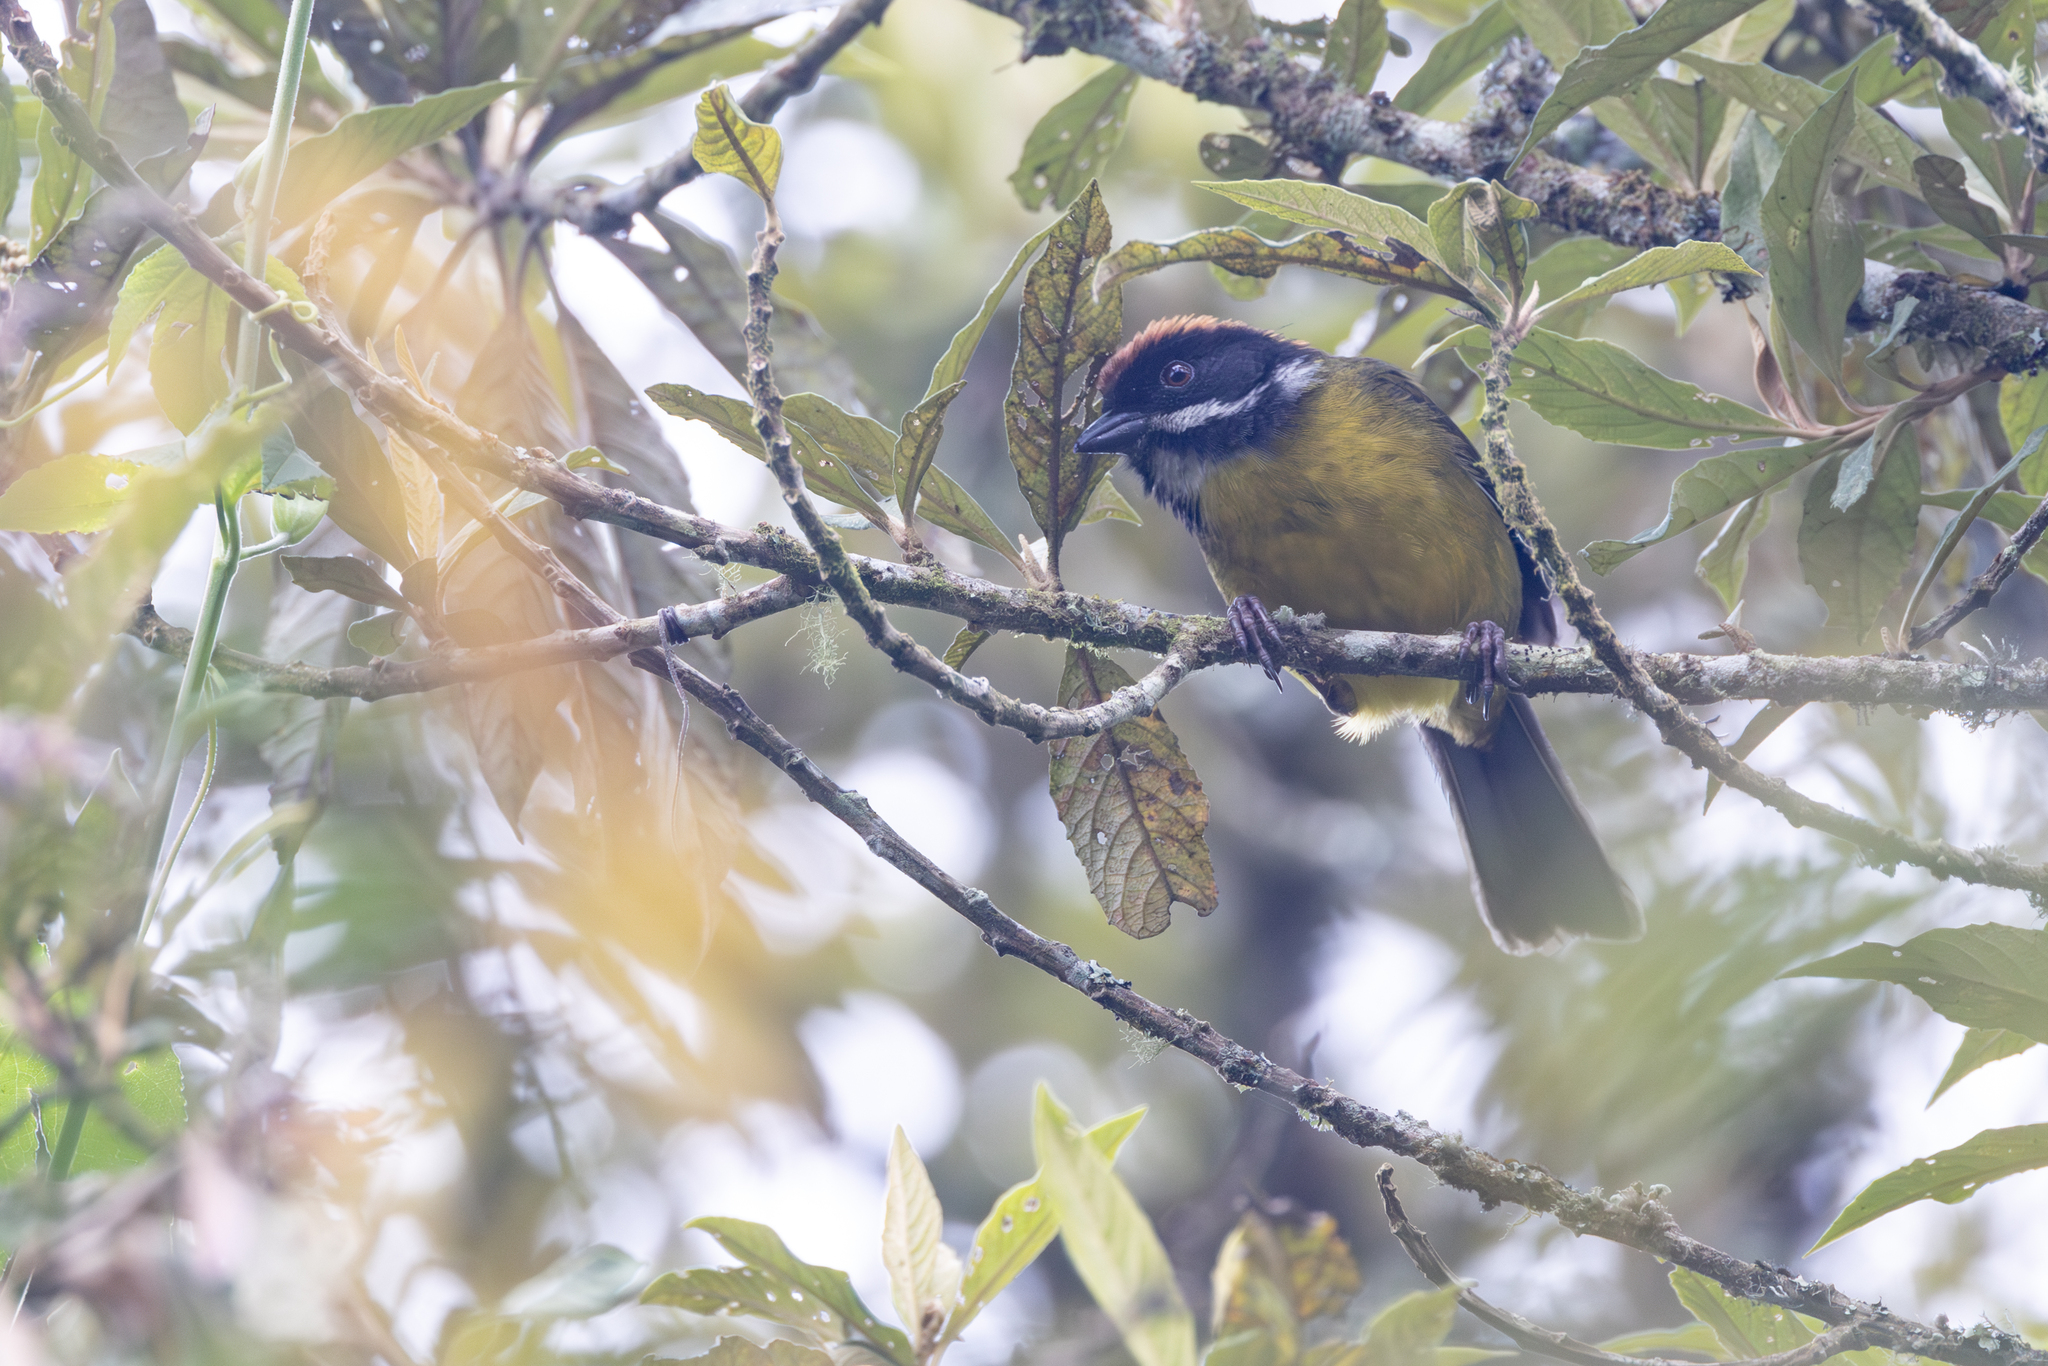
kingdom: Animalia
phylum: Chordata
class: Aves
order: Passeriformes
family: Passerellidae
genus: Atlapetes
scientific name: Atlapetes albofrenatus
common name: Moustached brushfinch
